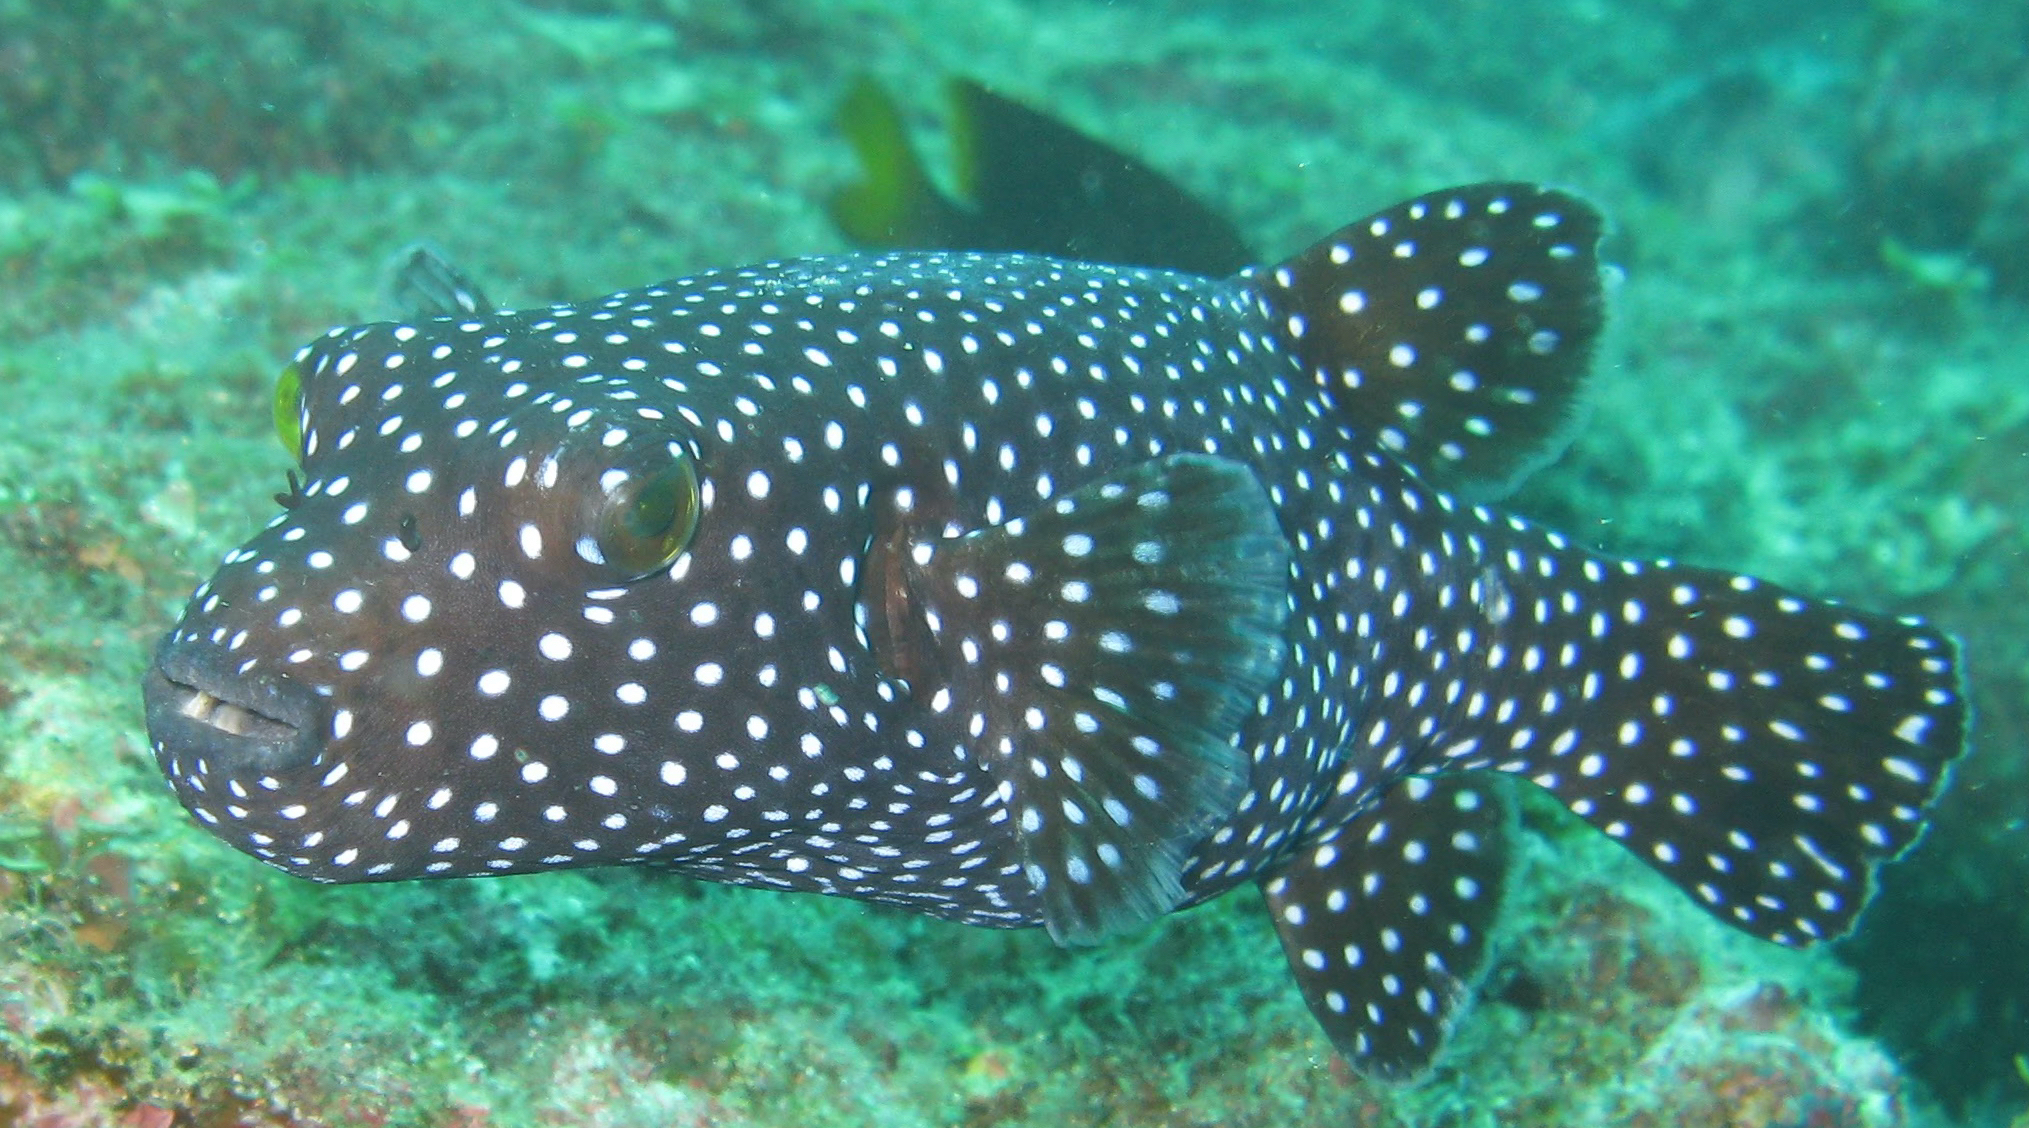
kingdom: Animalia
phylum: Chordata
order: Tetraodontiformes
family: Tetraodontidae
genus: Arothron
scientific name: Arothron meleagris
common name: Guinea-fowl pufferfish
